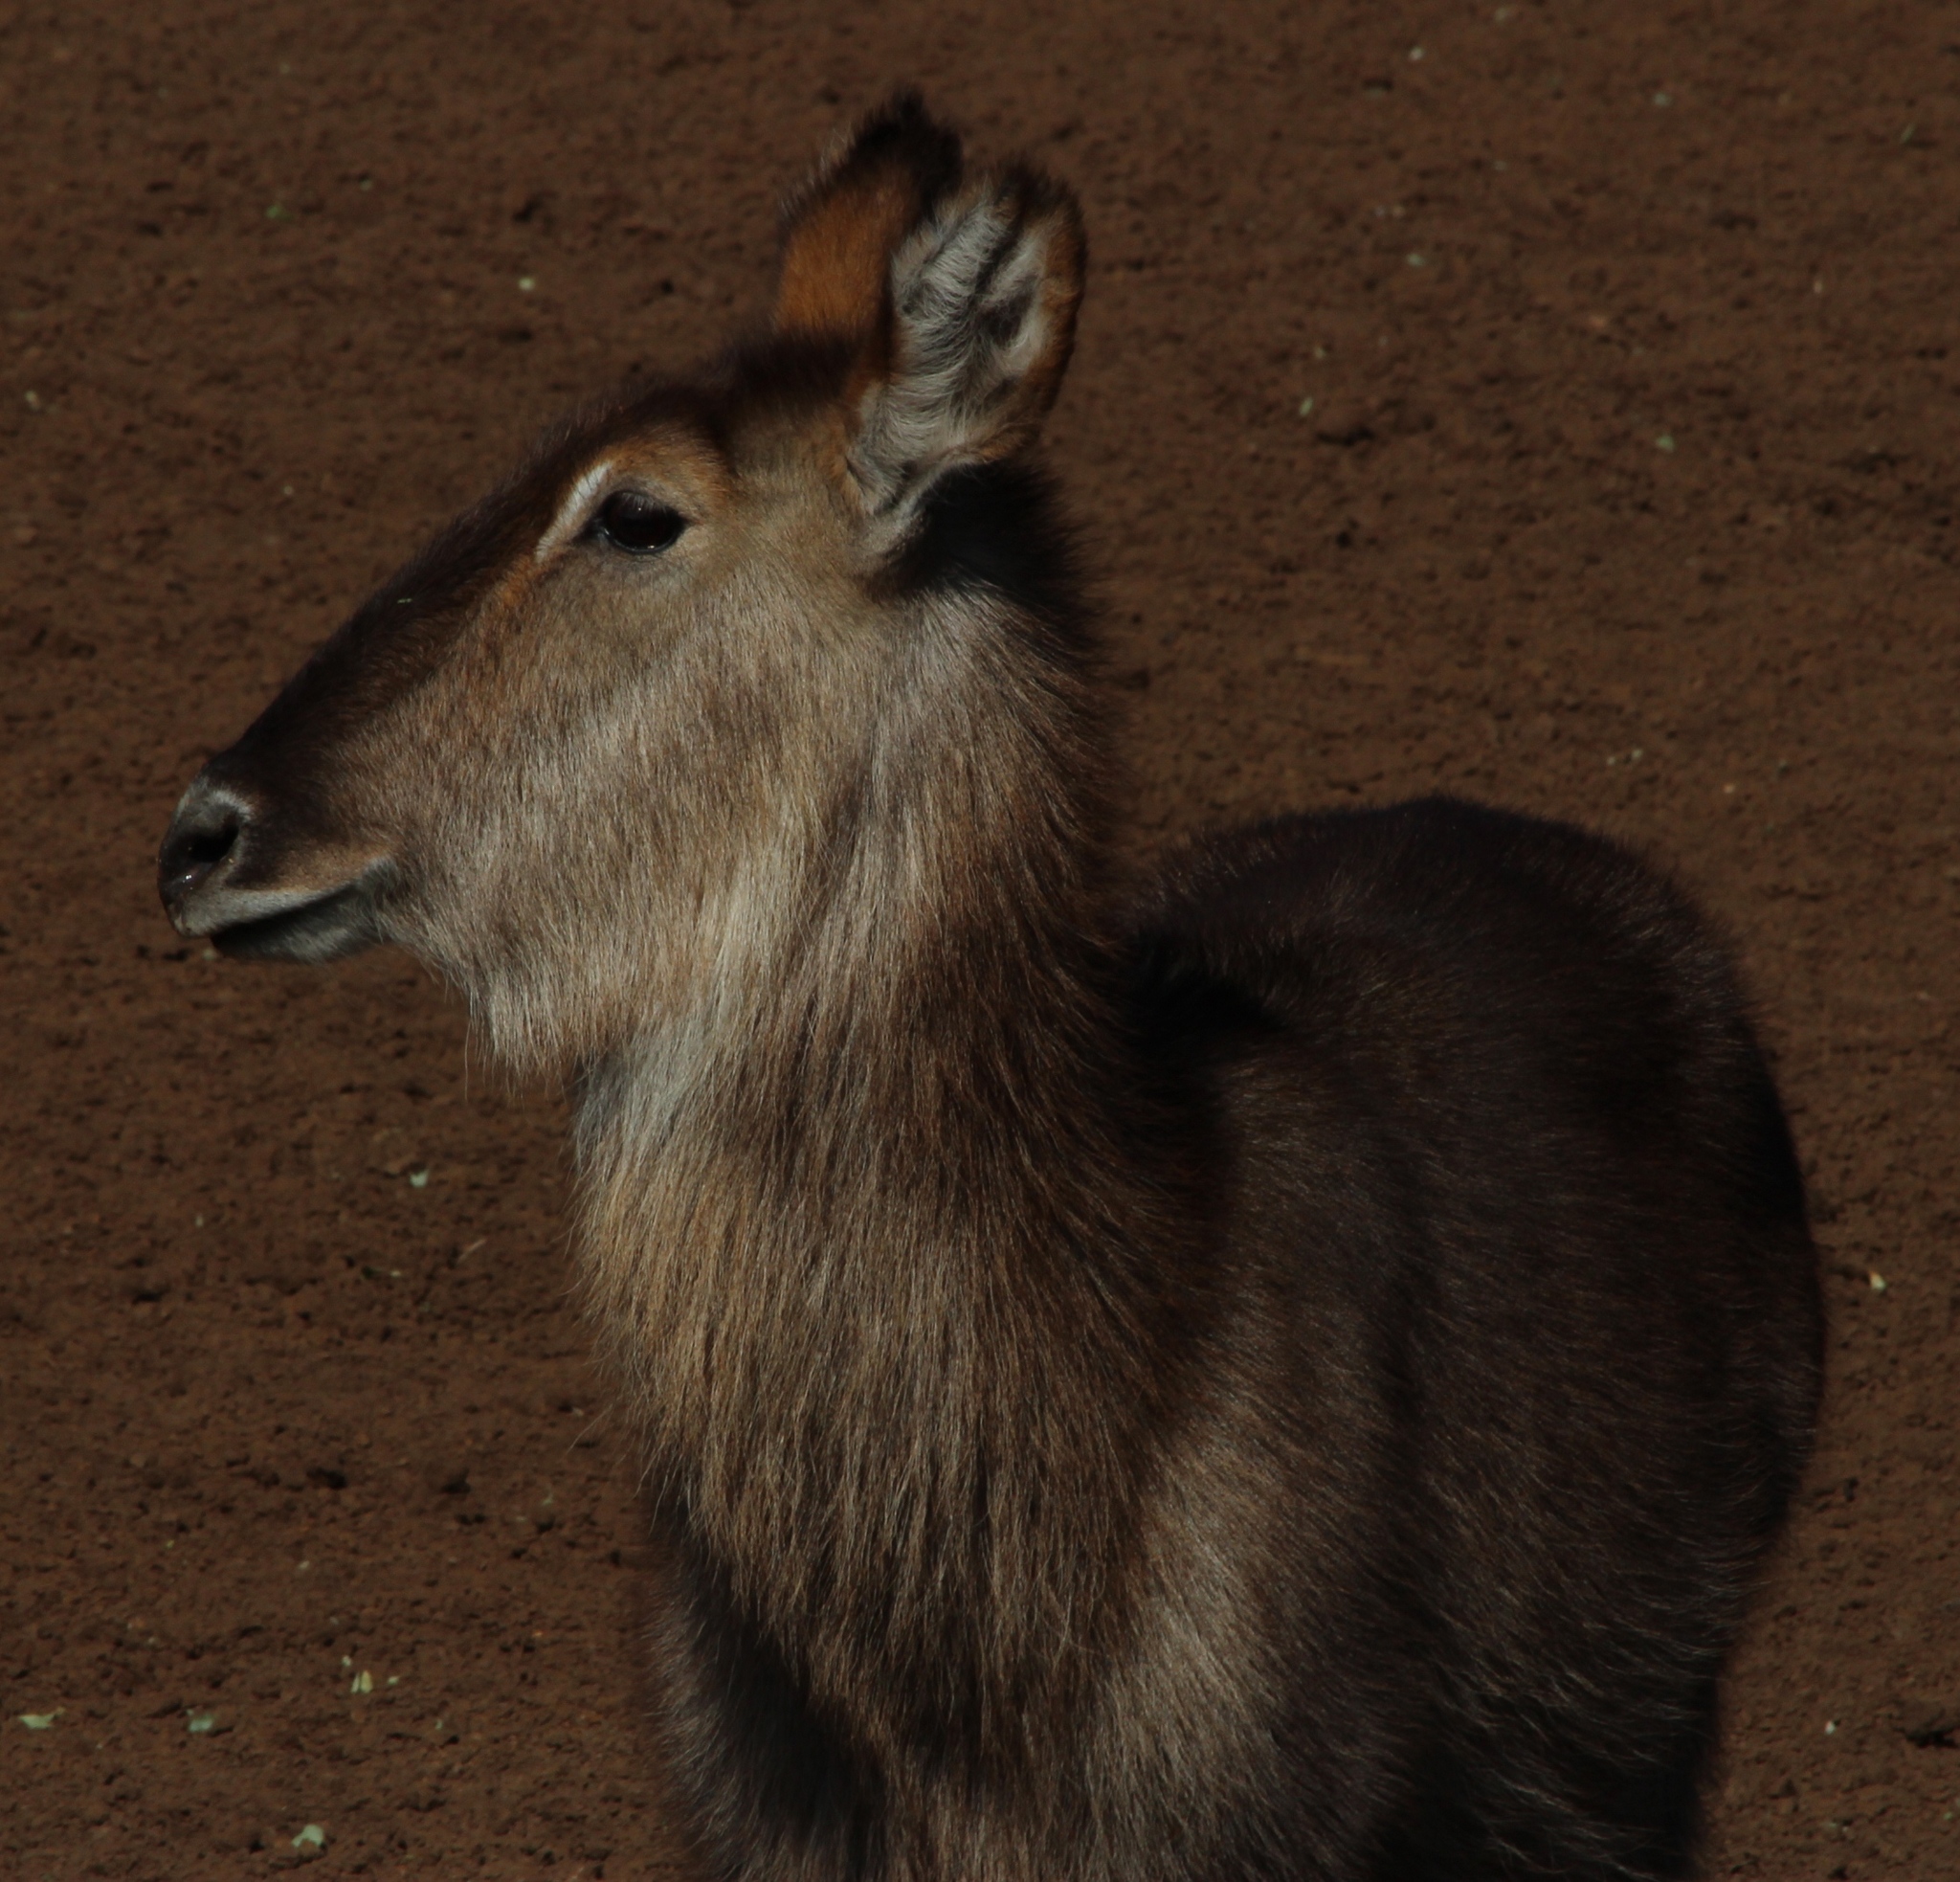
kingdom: Animalia
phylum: Chordata
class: Mammalia
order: Artiodactyla
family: Bovidae
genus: Kobus
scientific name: Kobus ellipsiprymnus
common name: Waterbuck
